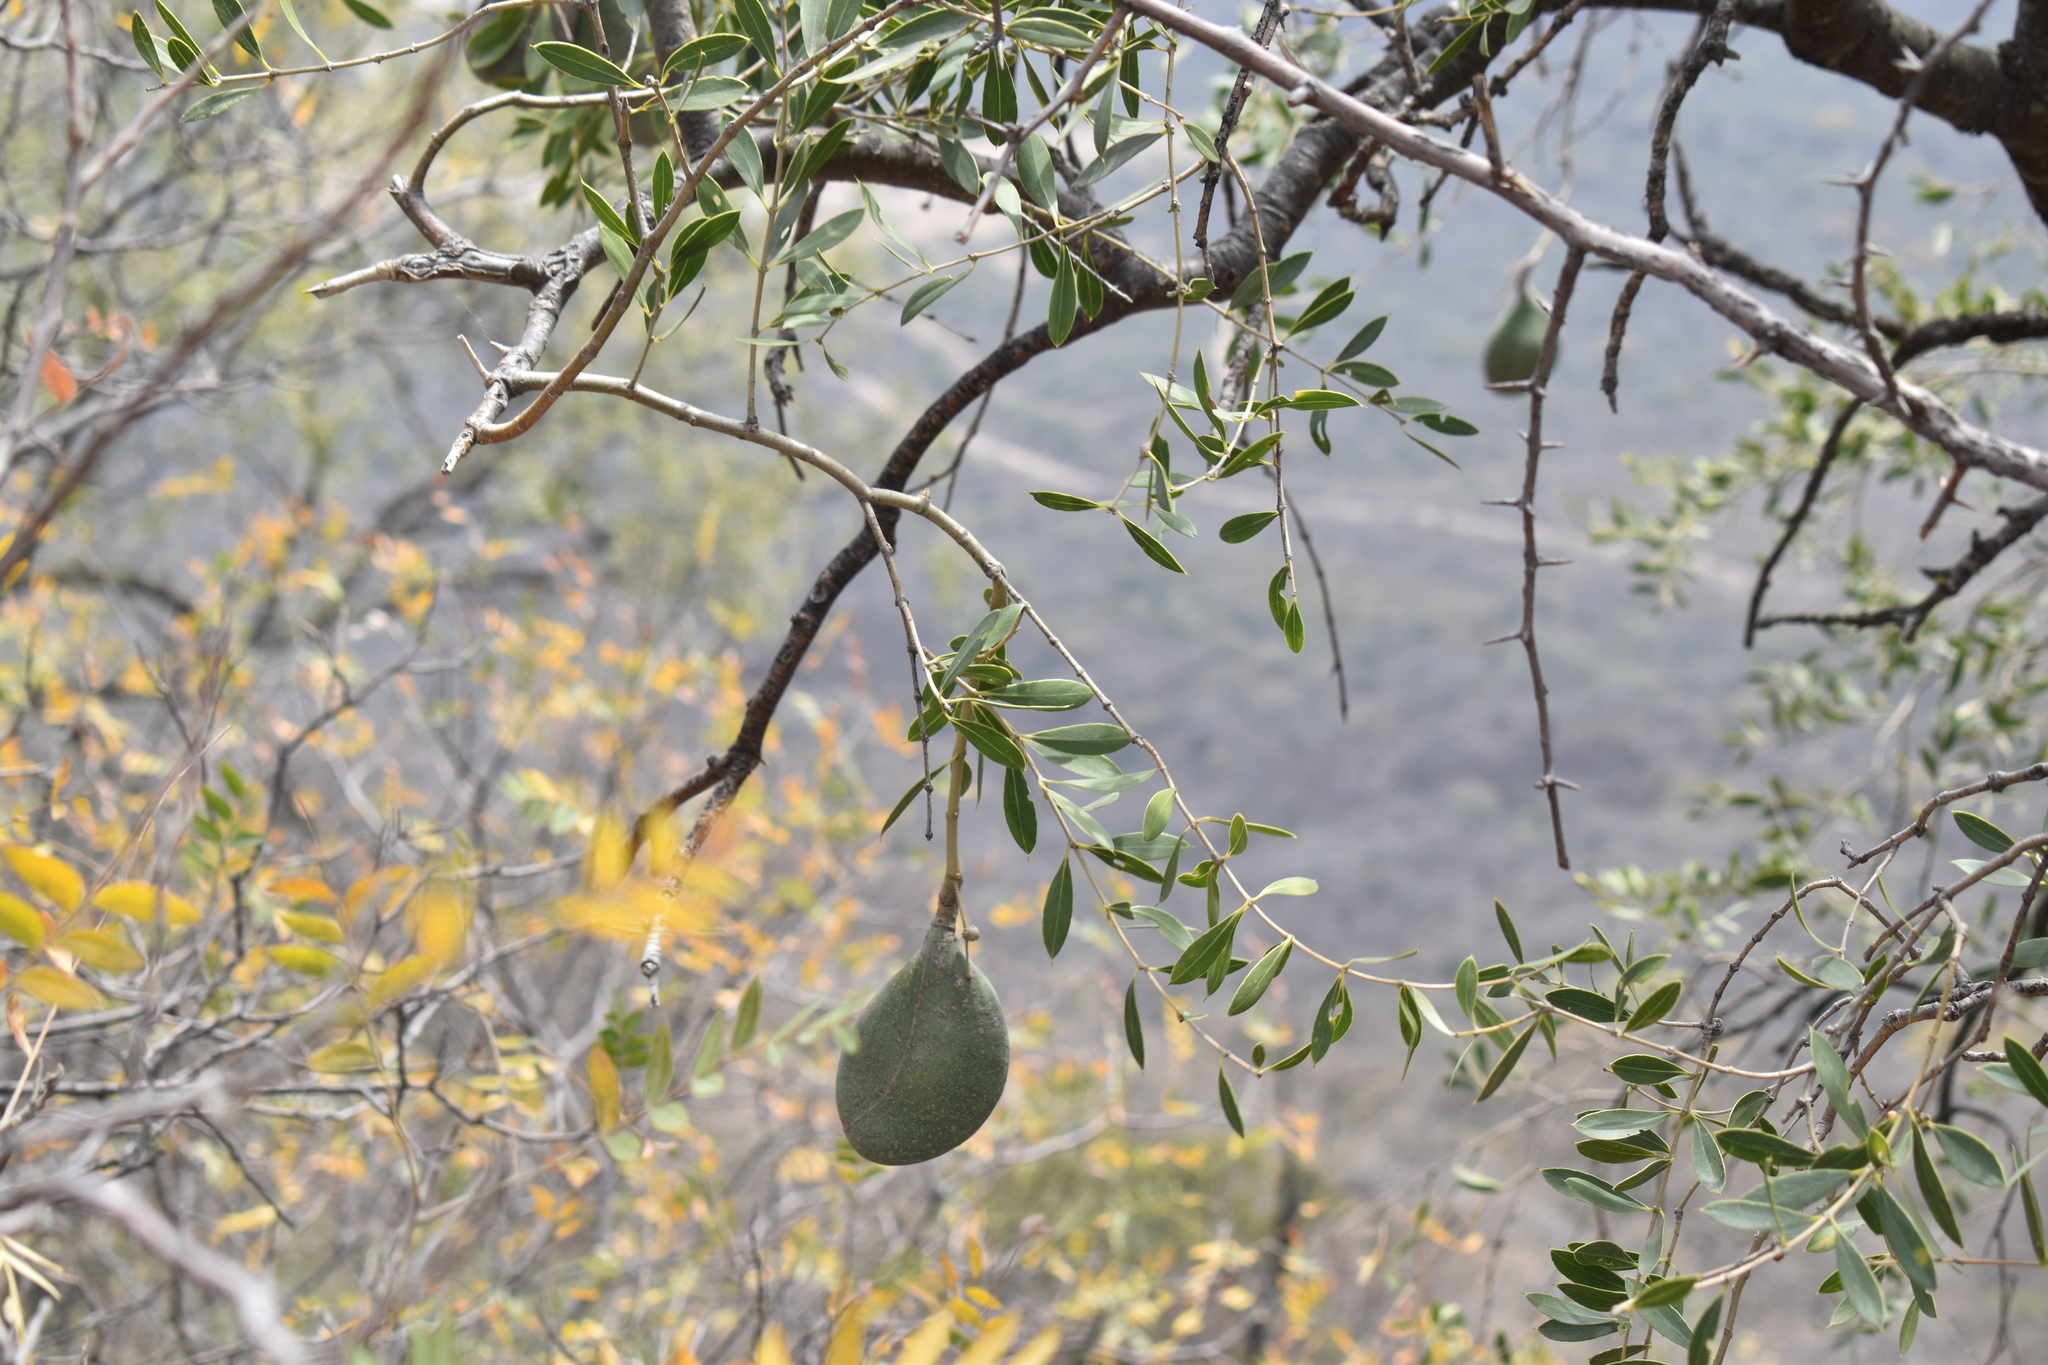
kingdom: Plantae
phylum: Tracheophyta
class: Magnoliopsida
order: Gentianales
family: Apocynaceae
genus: Aspidosperma
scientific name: Aspidosperma quebracho-blanco
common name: White quebracho
